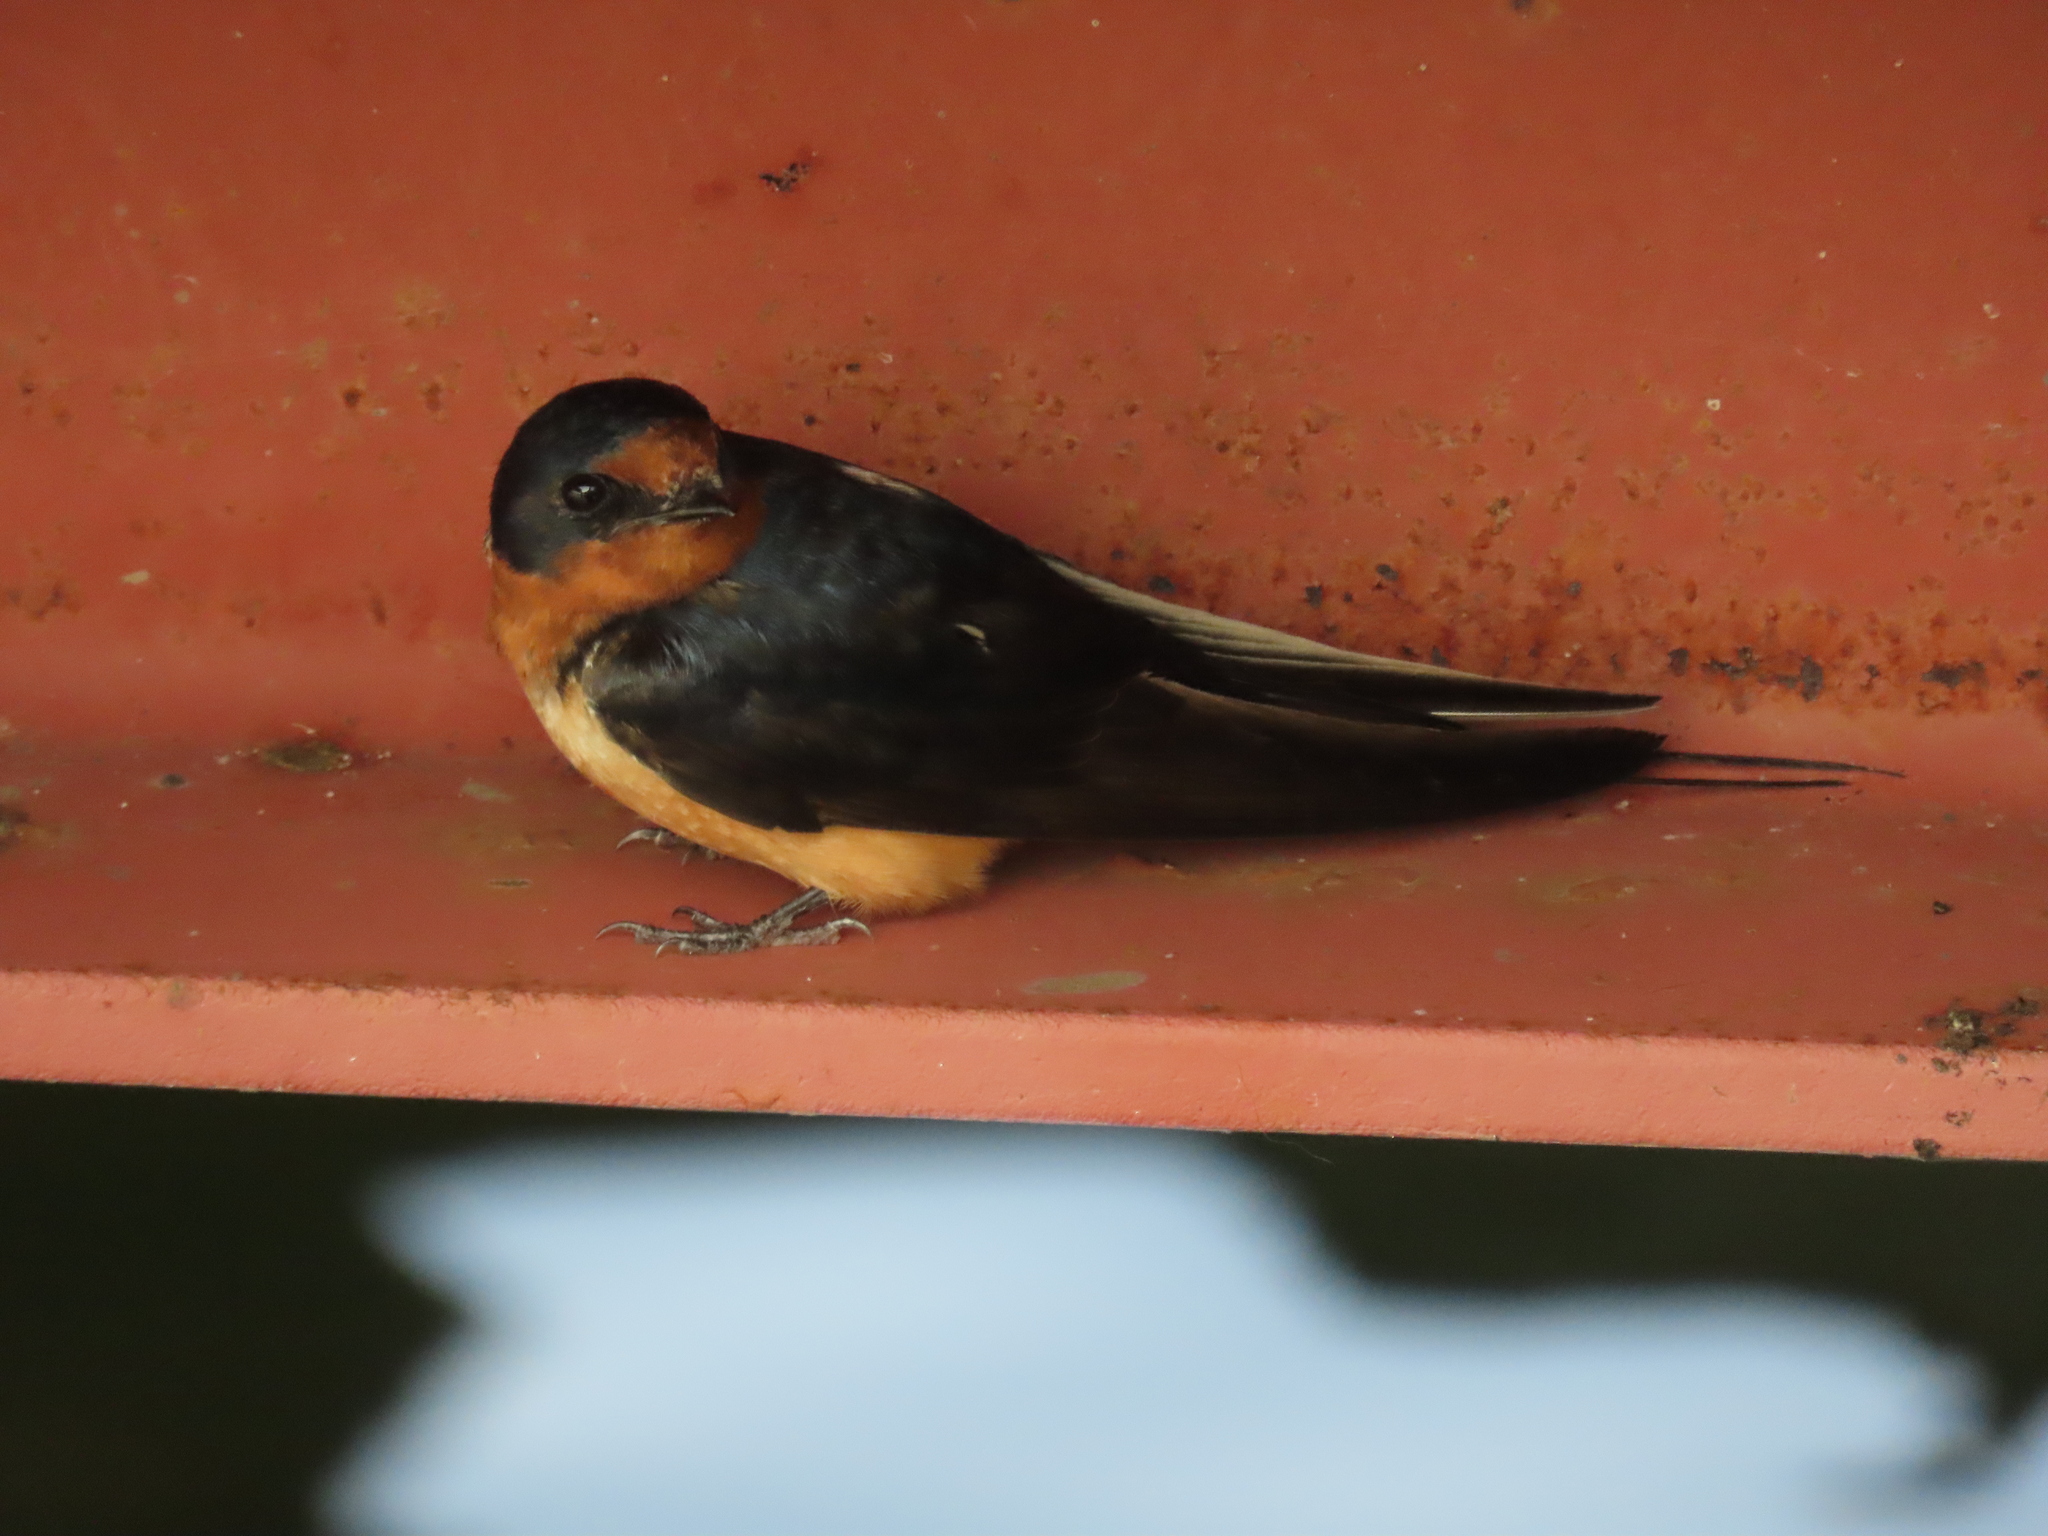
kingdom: Animalia
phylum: Chordata
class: Aves
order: Passeriformes
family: Hirundinidae
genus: Hirundo
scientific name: Hirundo rustica
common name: Barn swallow
